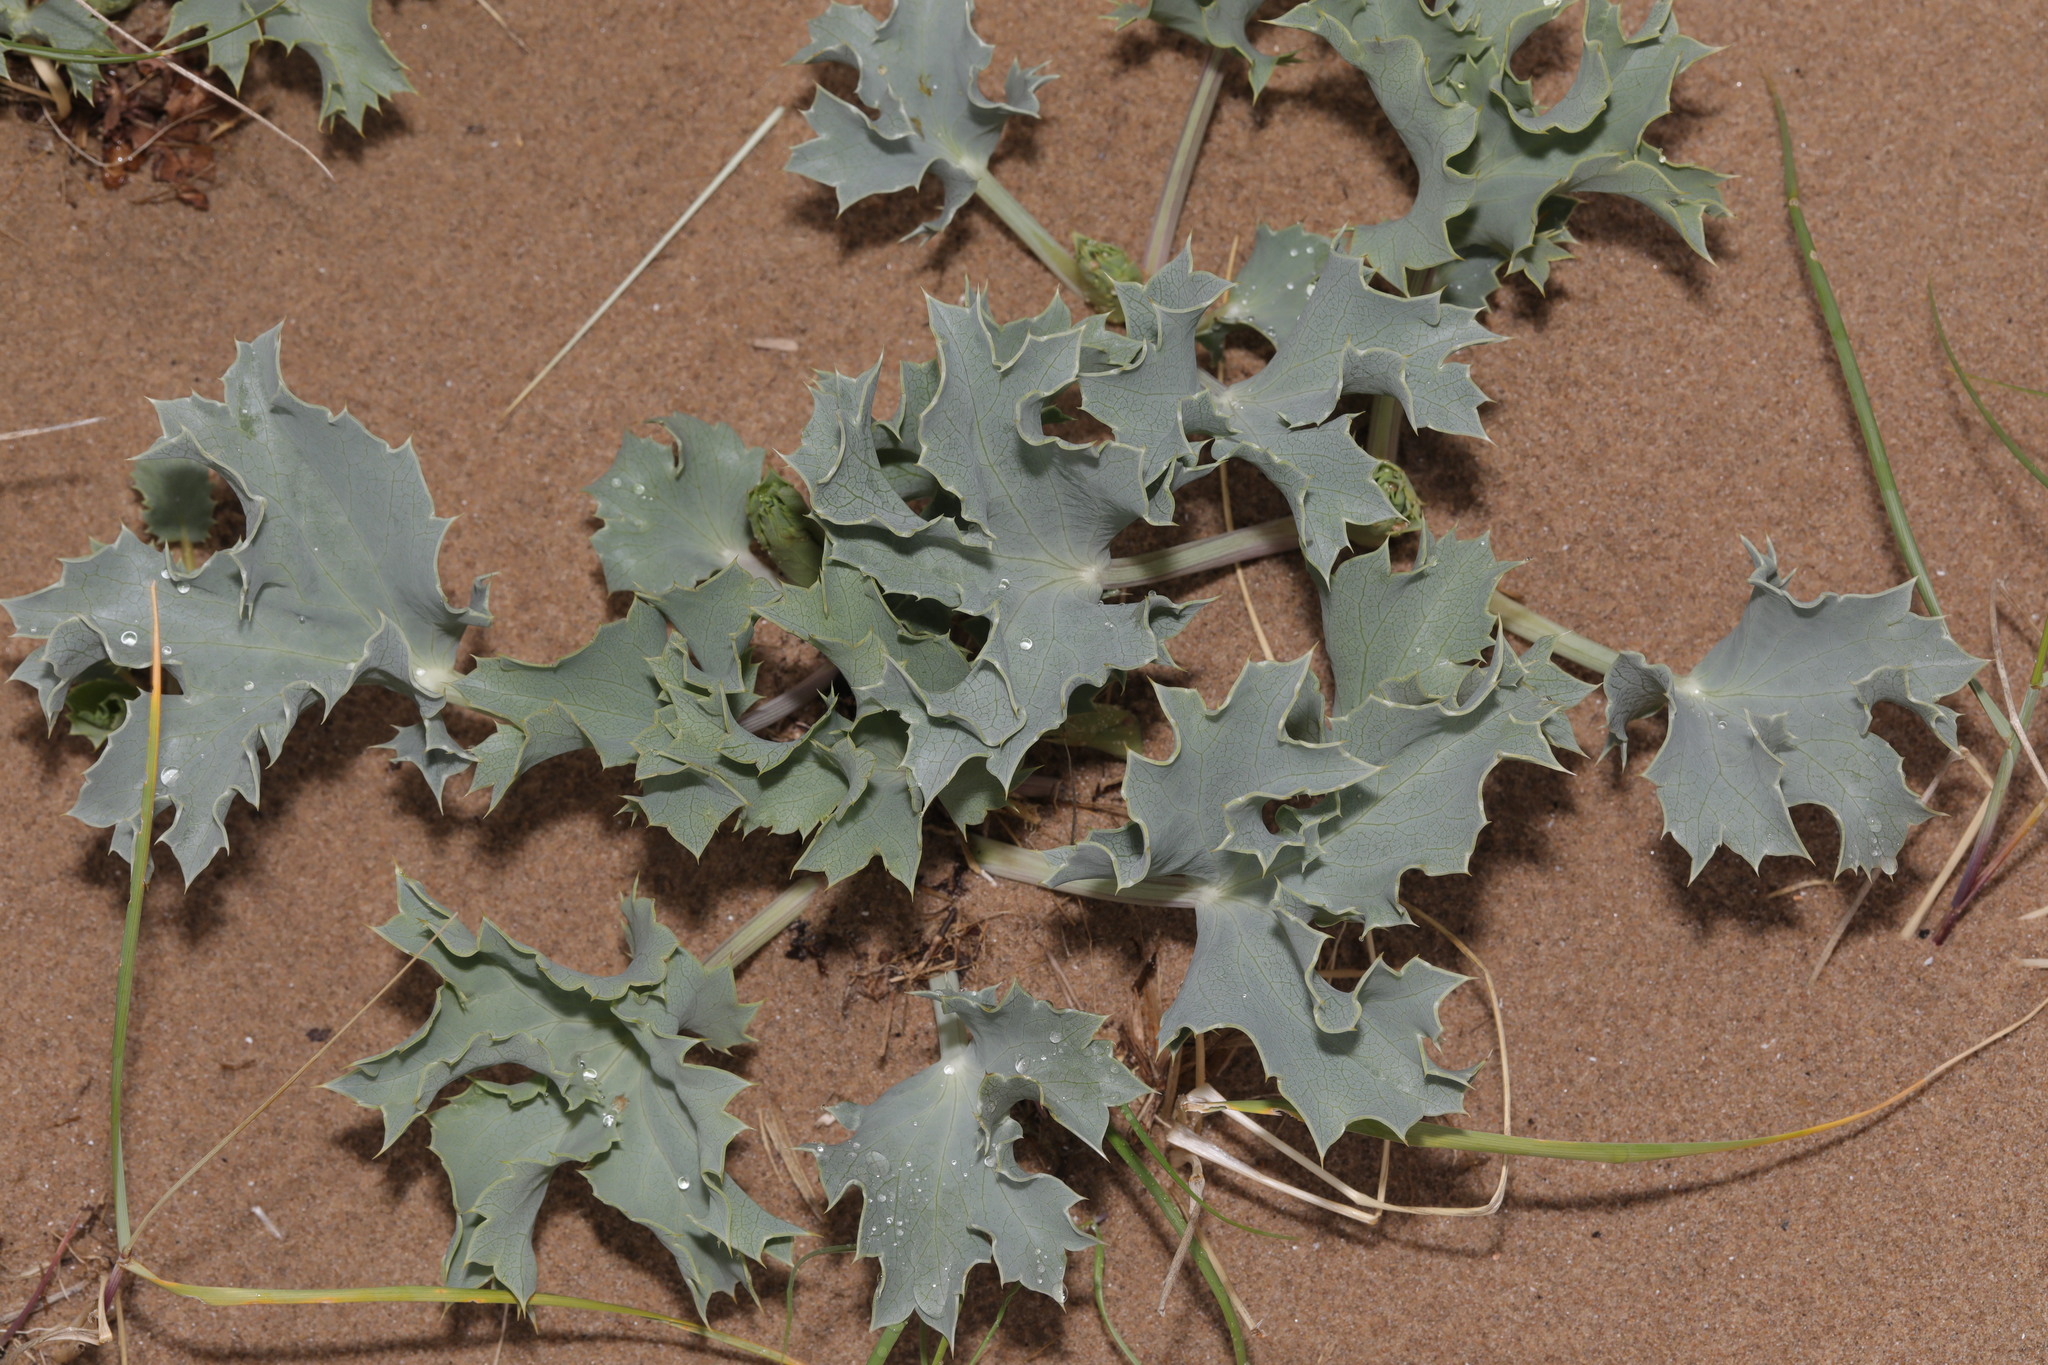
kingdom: Plantae
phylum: Tracheophyta
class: Magnoliopsida
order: Apiales
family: Apiaceae
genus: Eryngium
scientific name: Eryngium maritimum
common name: Sea-holly
